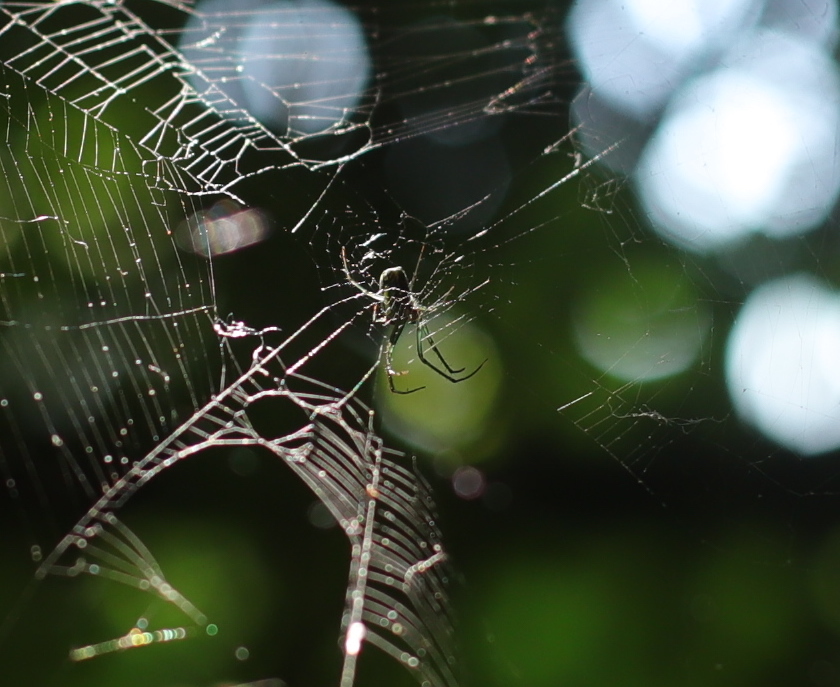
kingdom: Animalia
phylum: Arthropoda
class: Arachnida
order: Araneae
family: Tetragnathidae
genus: Leucauge
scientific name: Leucauge venusta
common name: Longjawed orb weavers
